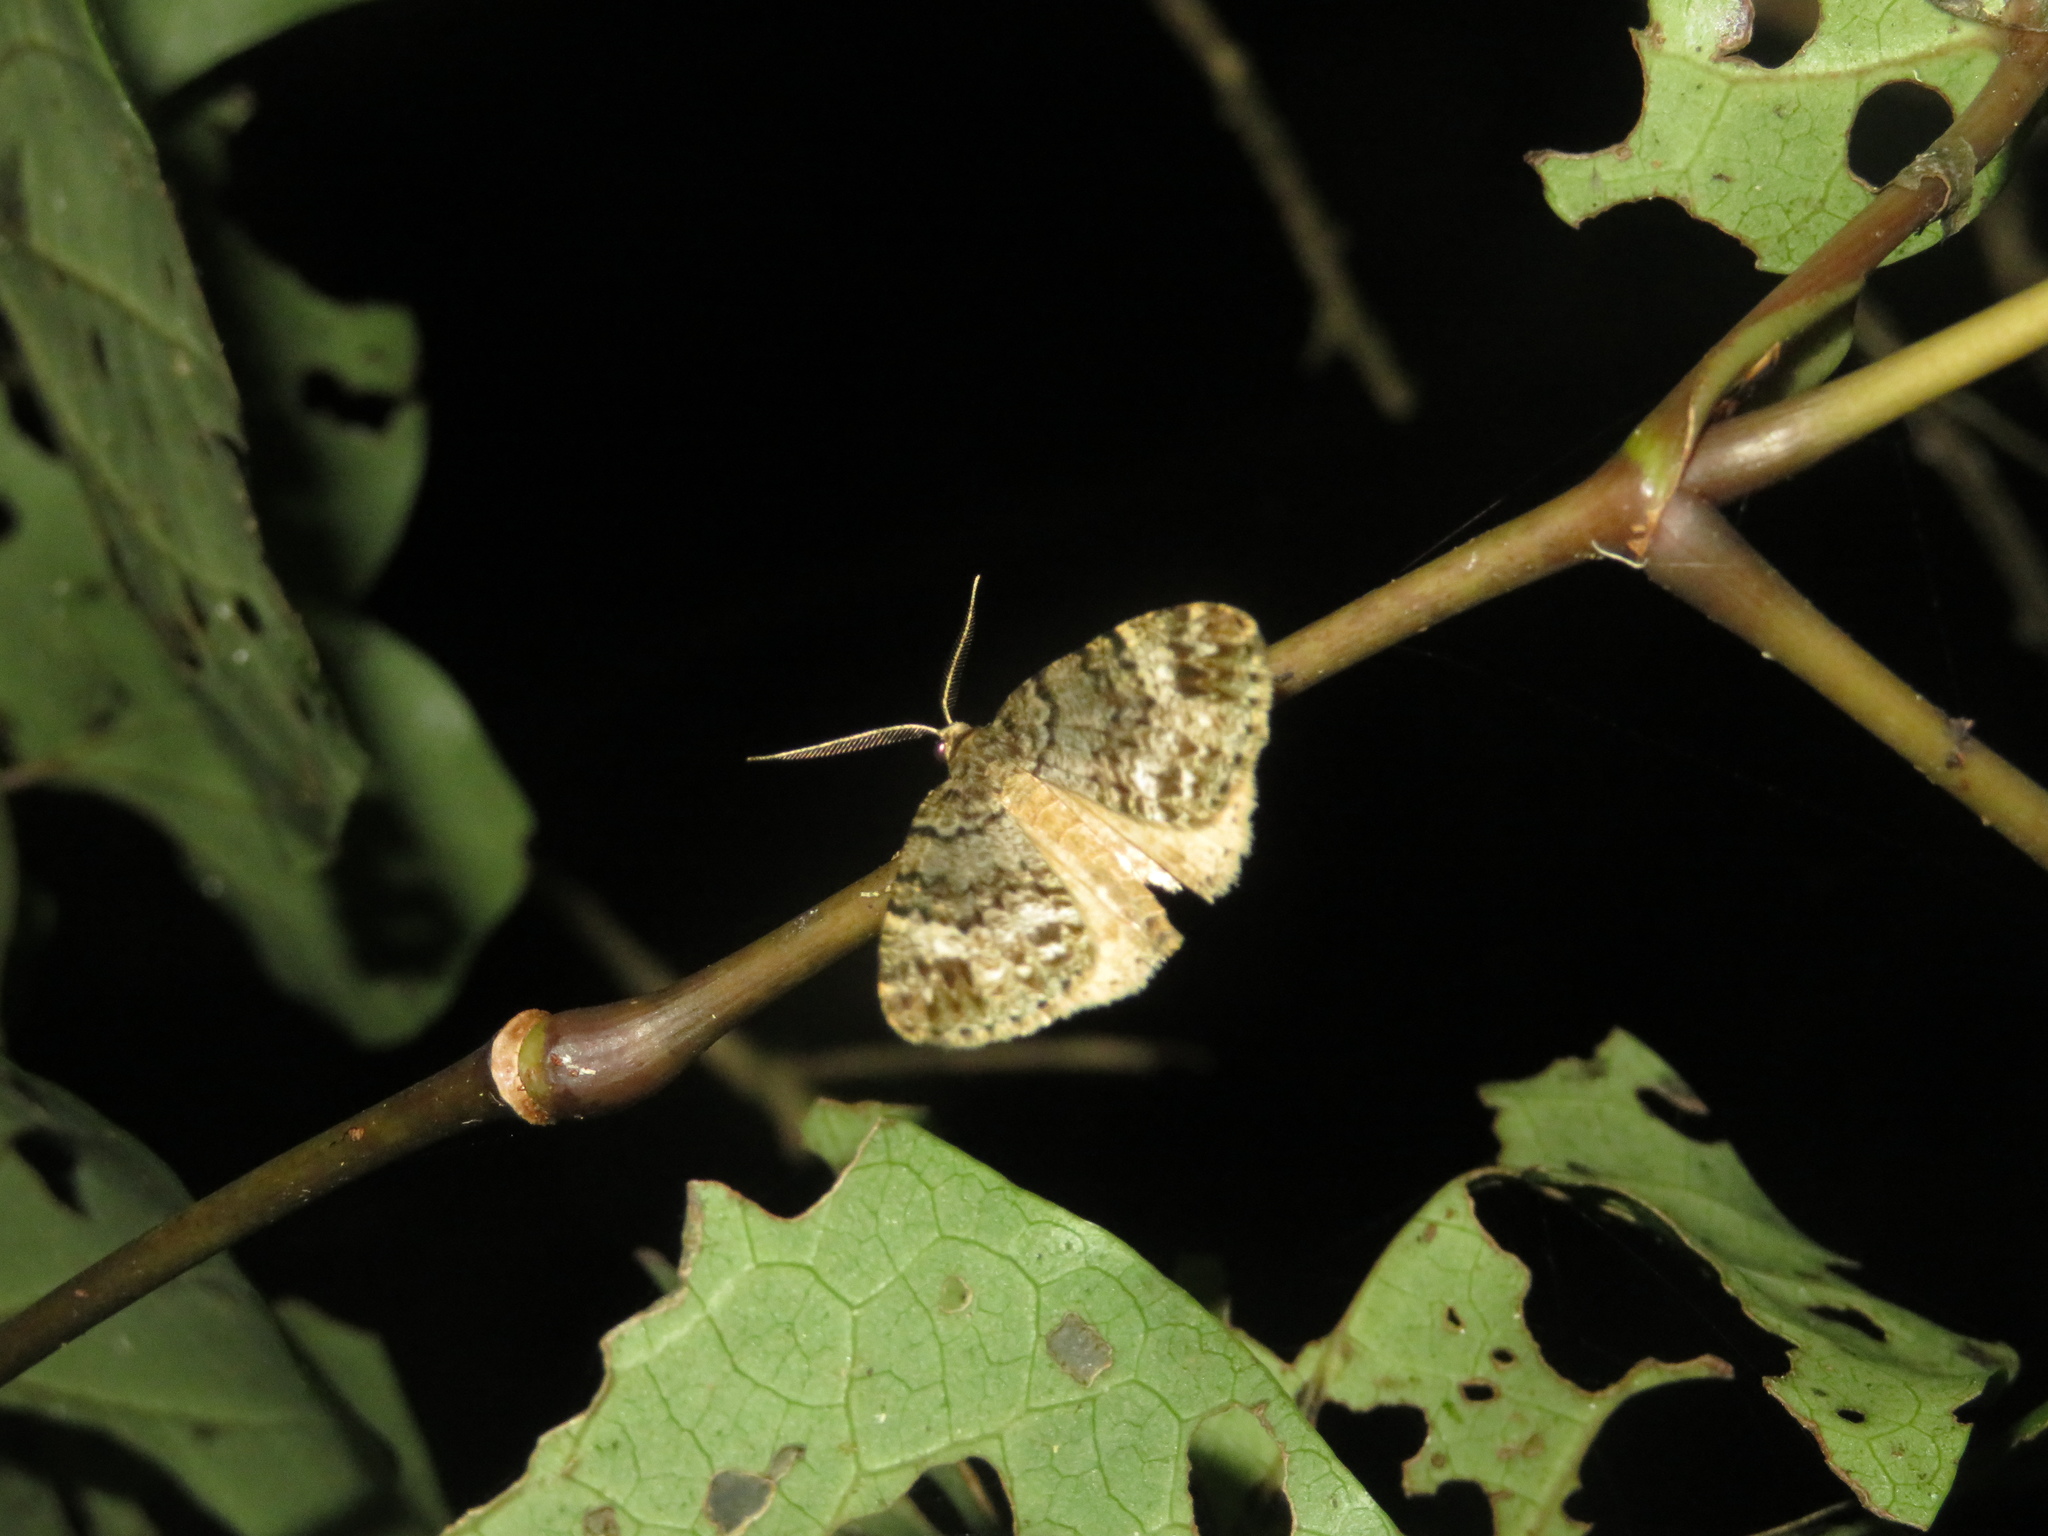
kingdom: Animalia
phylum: Arthropoda
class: Insecta
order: Lepidoptera
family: Geometridae
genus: Pseudocoremia
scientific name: Pseudocoremia indistincta
